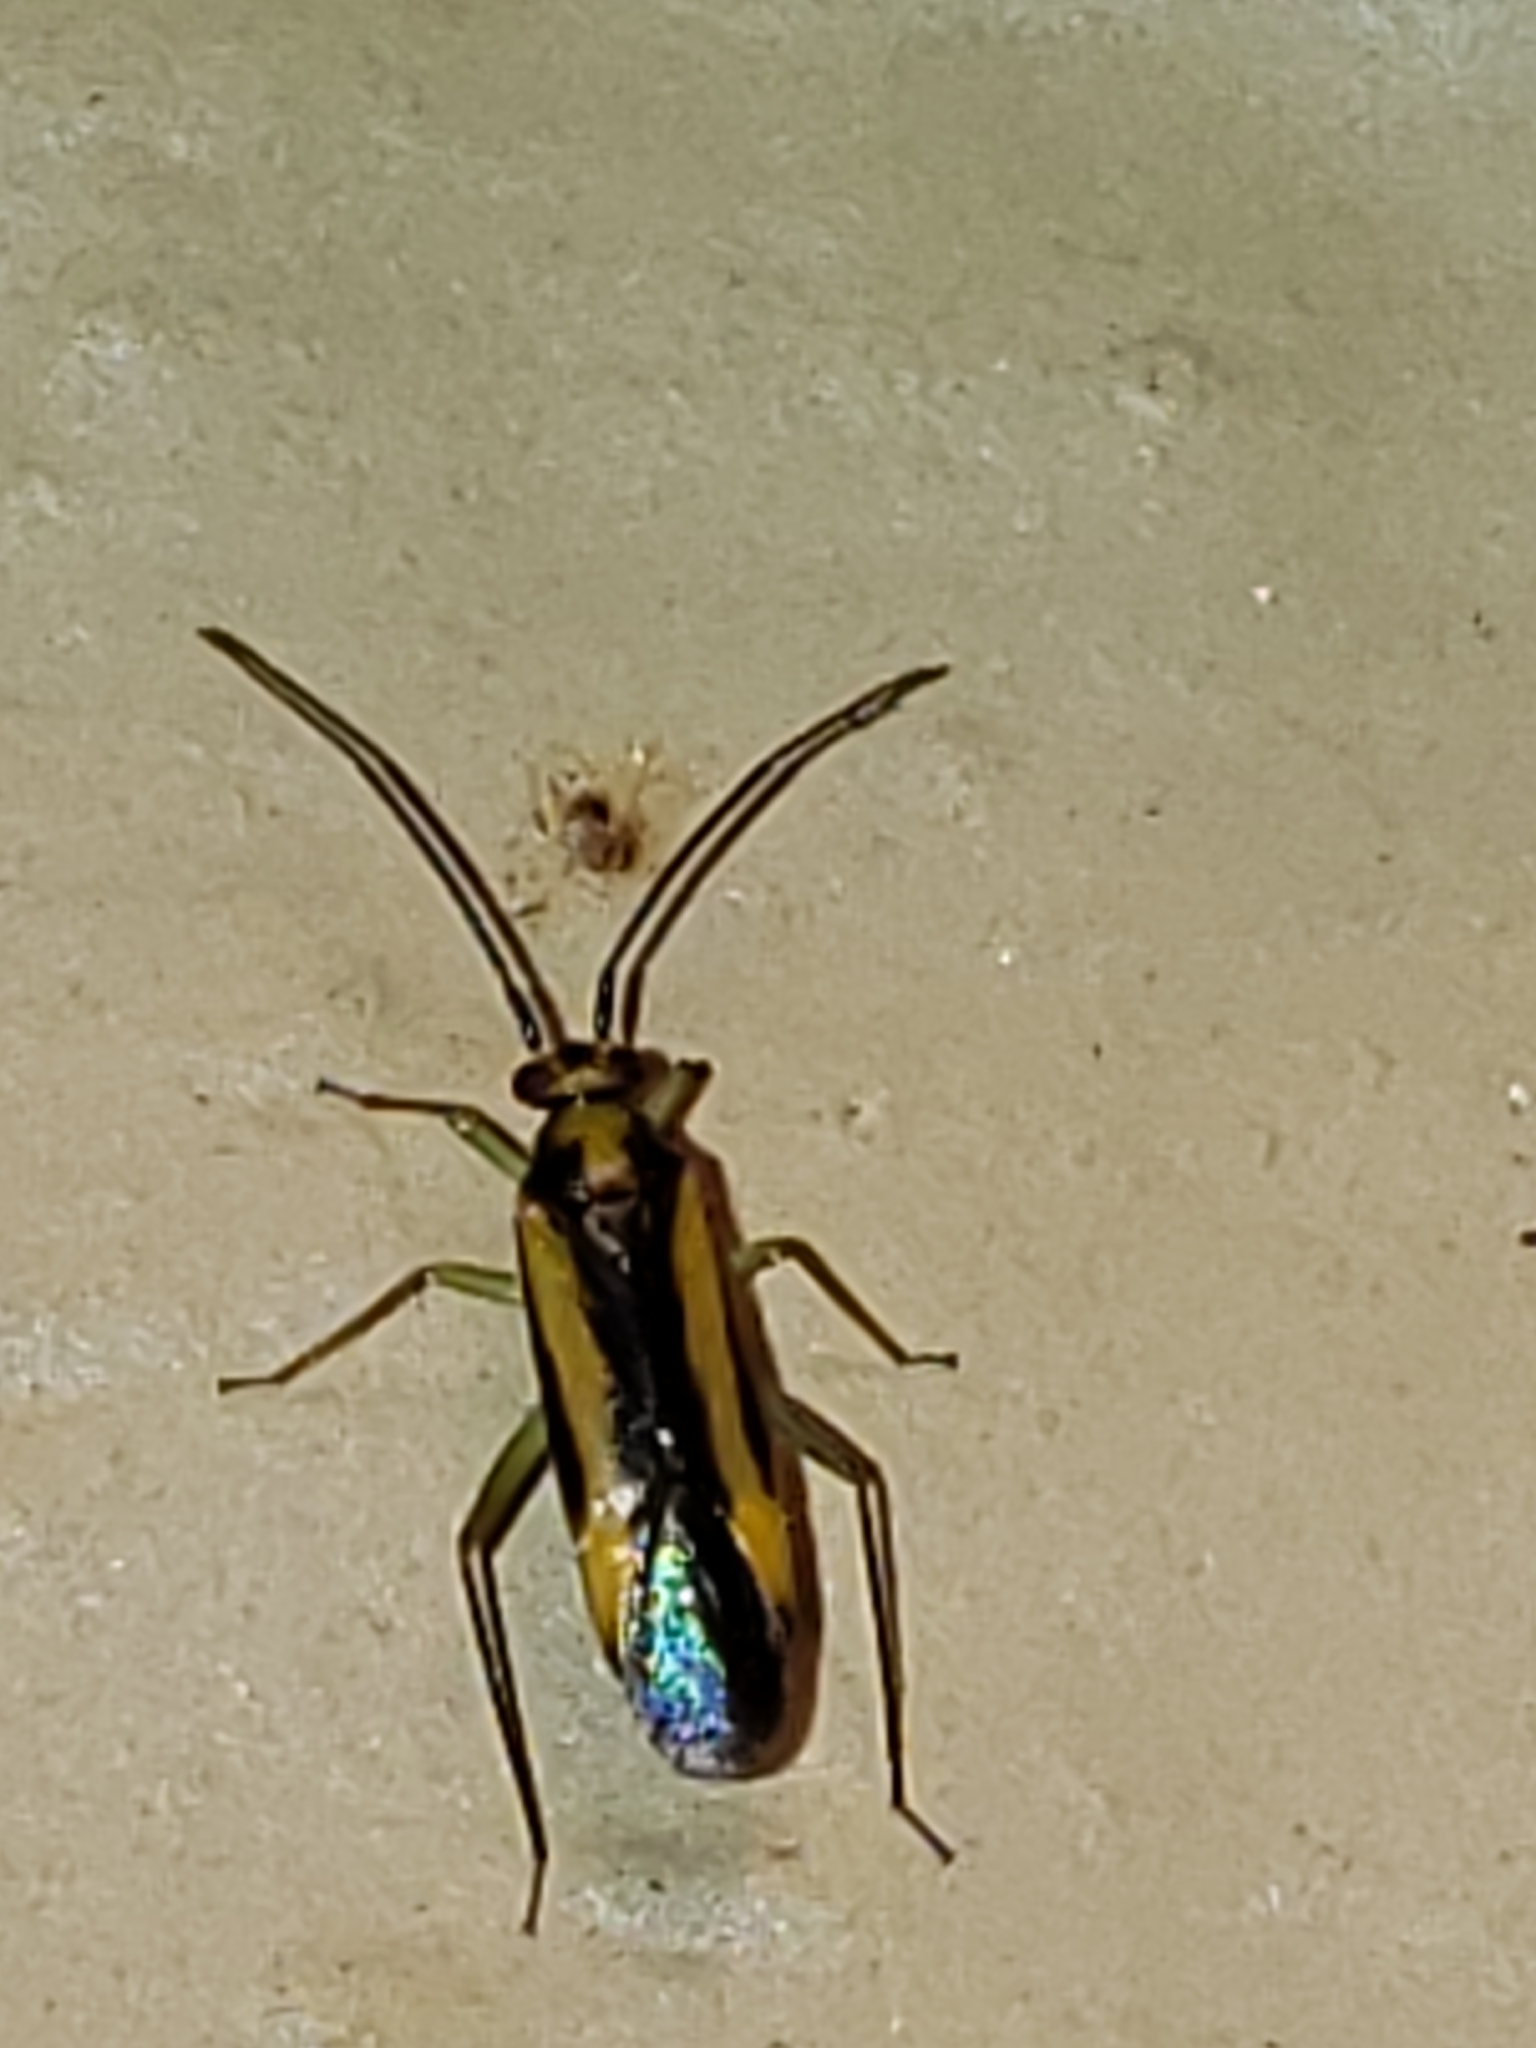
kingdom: Animalia
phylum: Arthropoda
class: Insecta
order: Hemiptera
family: Miridae
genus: Orthotylus
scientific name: Orthotylus submarginatus
